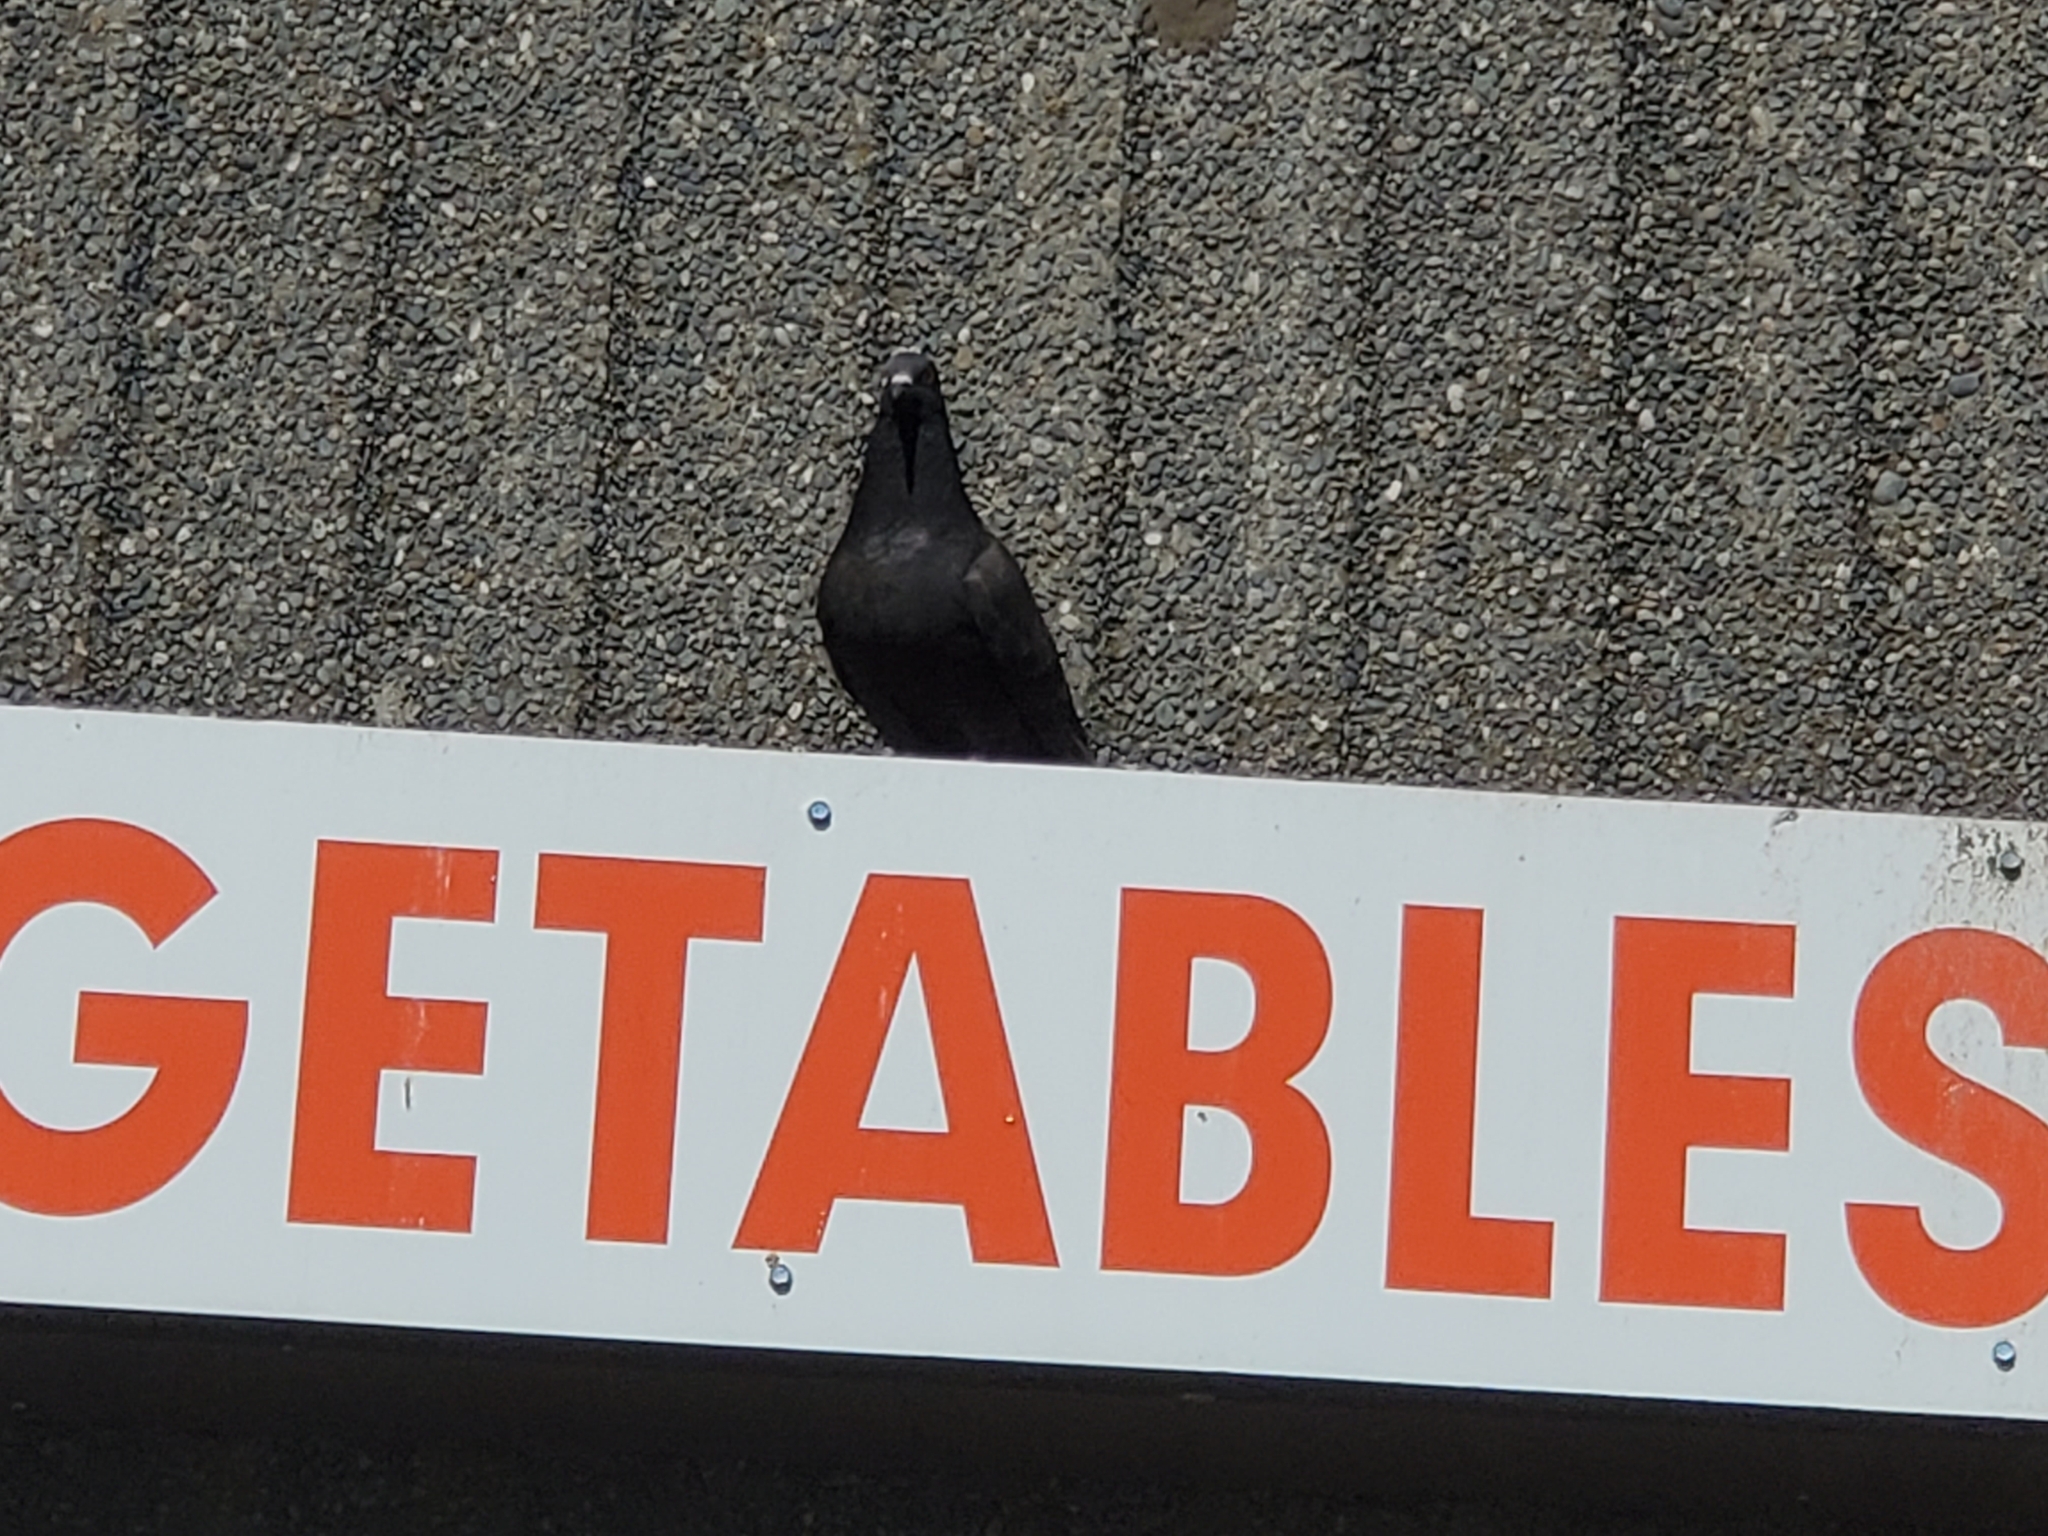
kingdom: Animalia
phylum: Chordata
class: Aves
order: Columbiformes
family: Columbidae
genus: Columba
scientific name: Columba livia
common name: Rock pigeon
